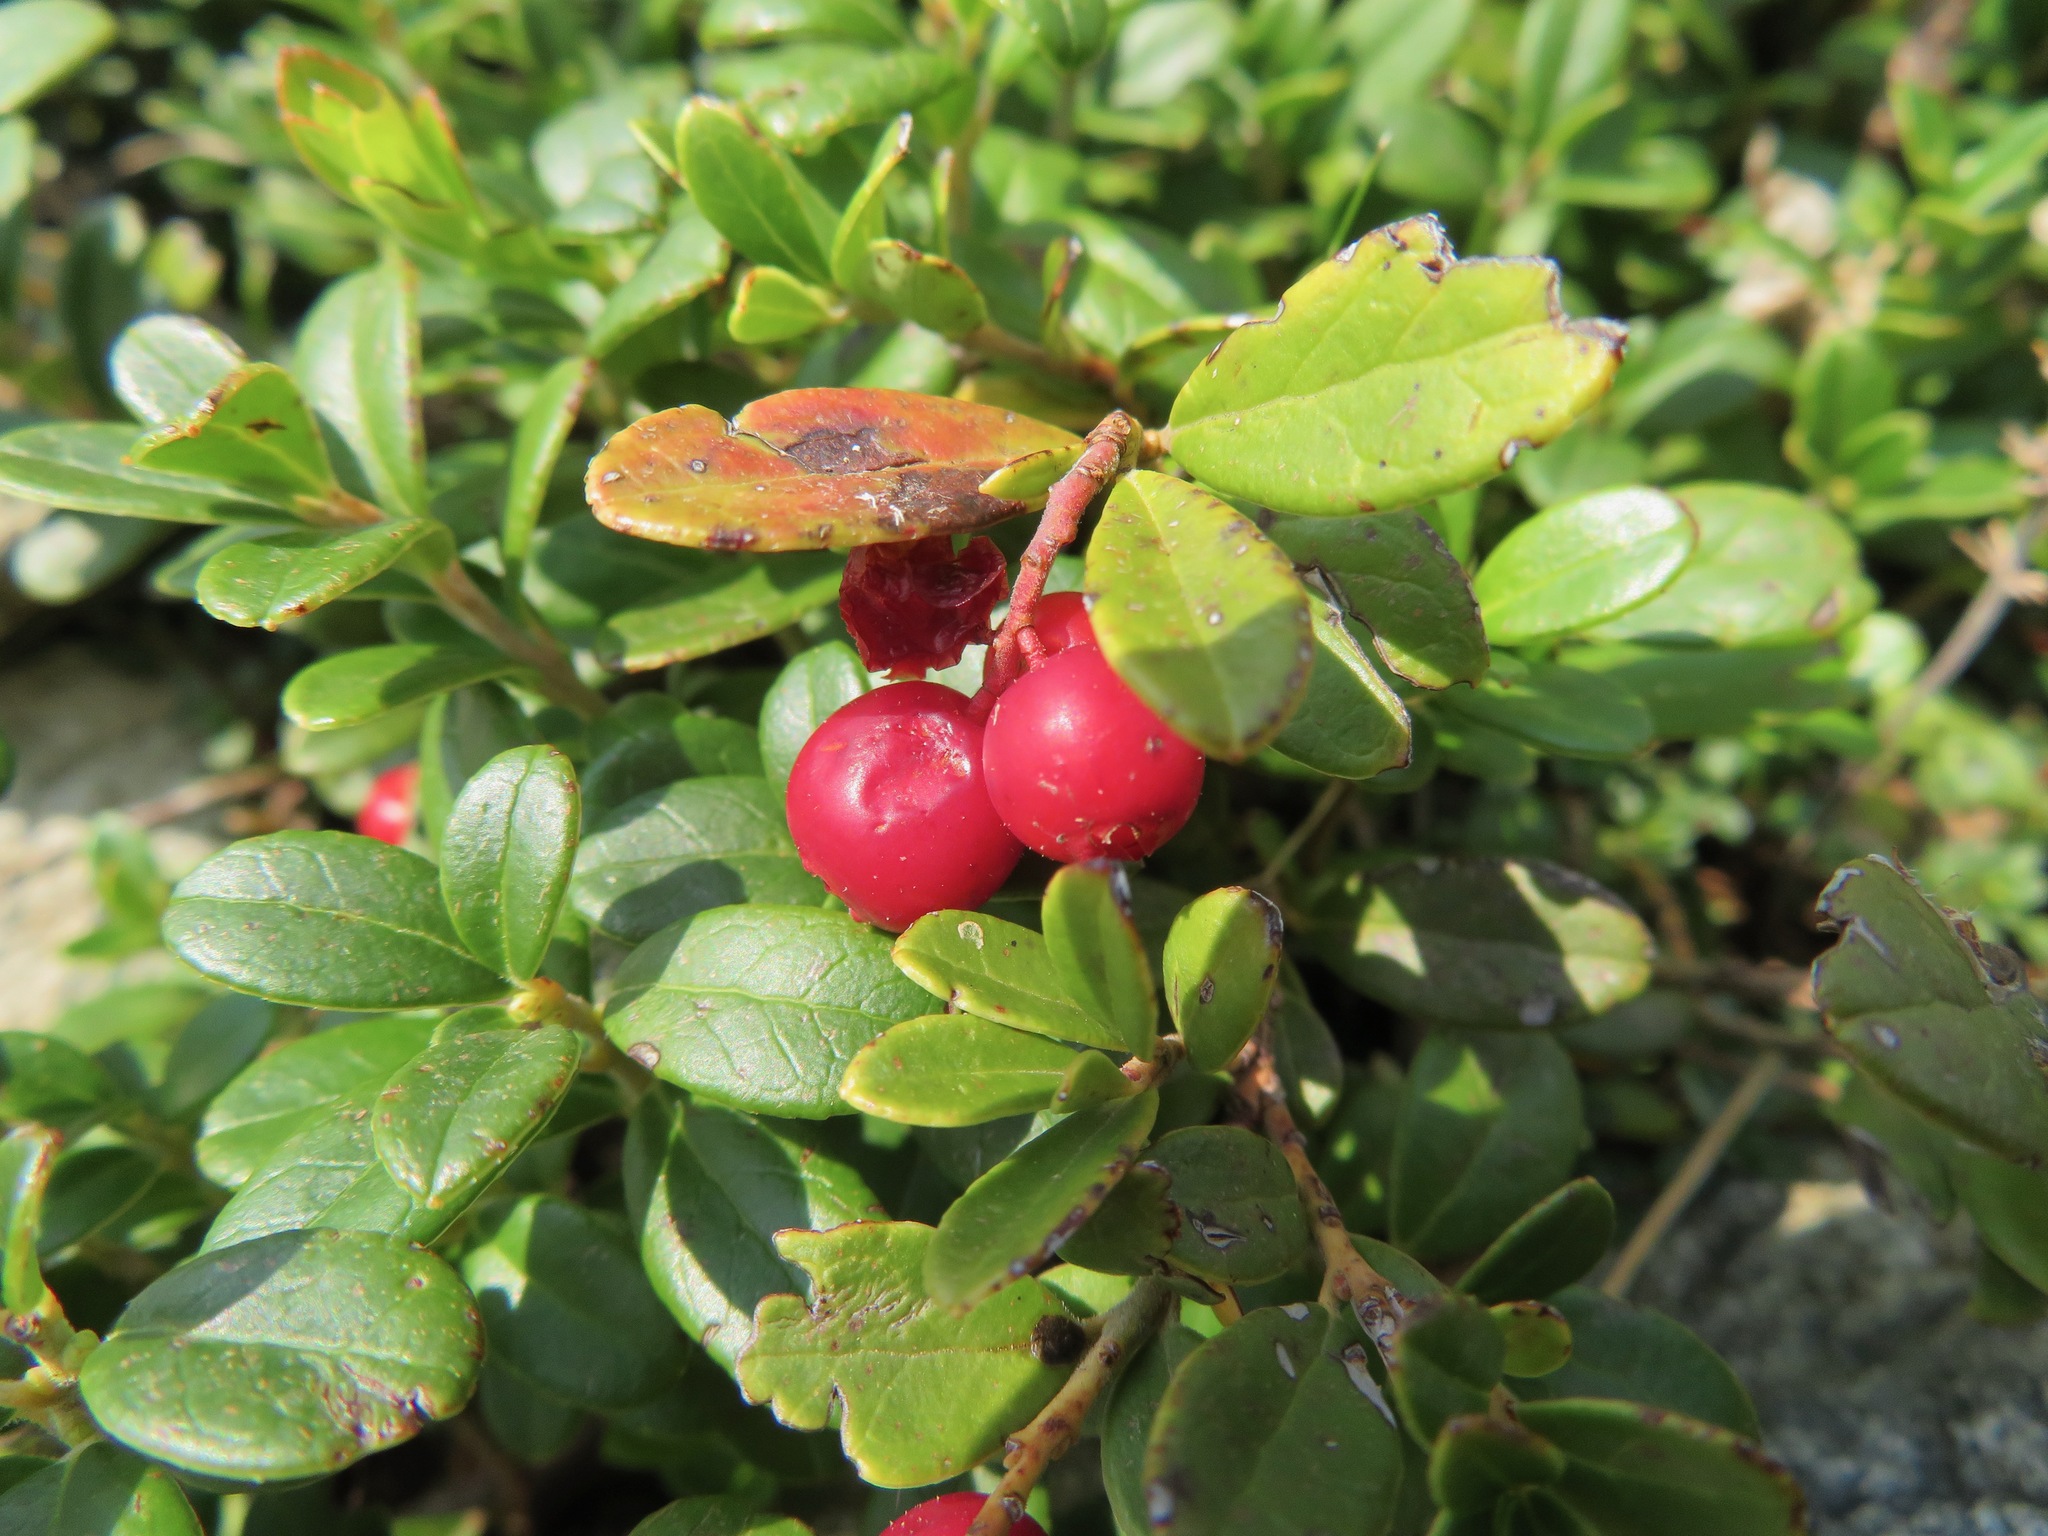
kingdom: Plantae
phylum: Tracheophyta
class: Magnoliopsida
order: Ericales
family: Ericaceae
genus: Vaccinium
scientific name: Vaccinium vitis-idaea
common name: Cowberry
